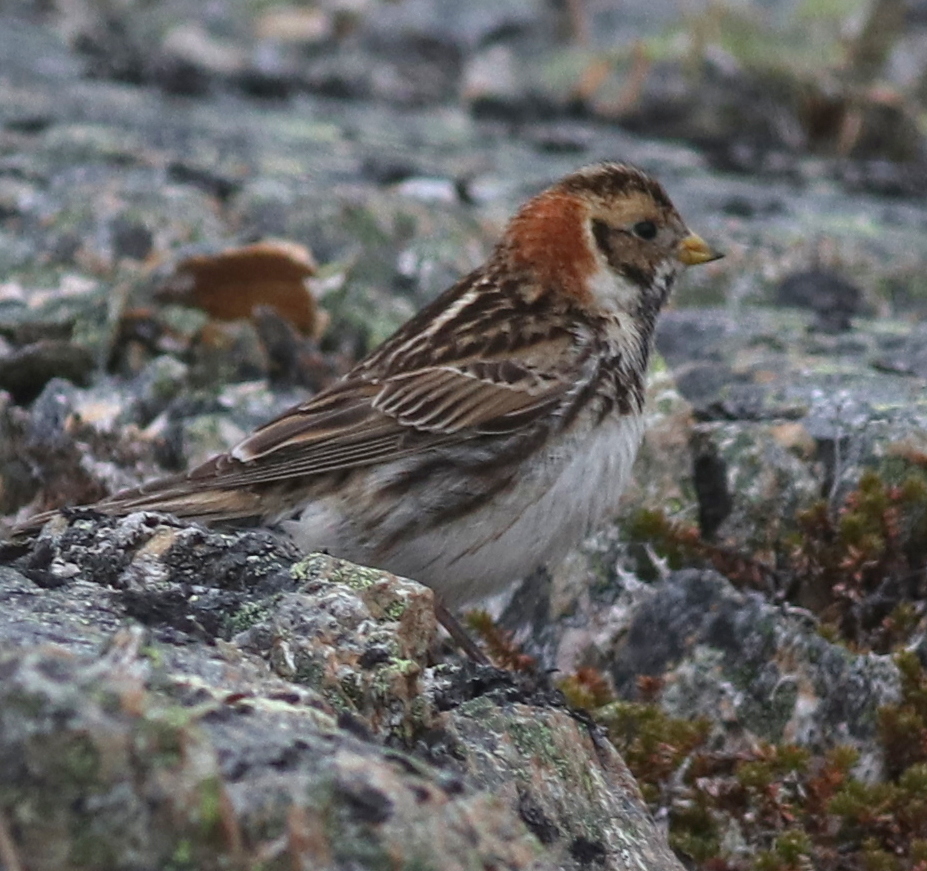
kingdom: Animalia
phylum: Chordata
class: Aves
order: Passeriformes
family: Calcariidae
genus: Calcarius
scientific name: Calcarius lapponicus
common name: Lapland longspur
